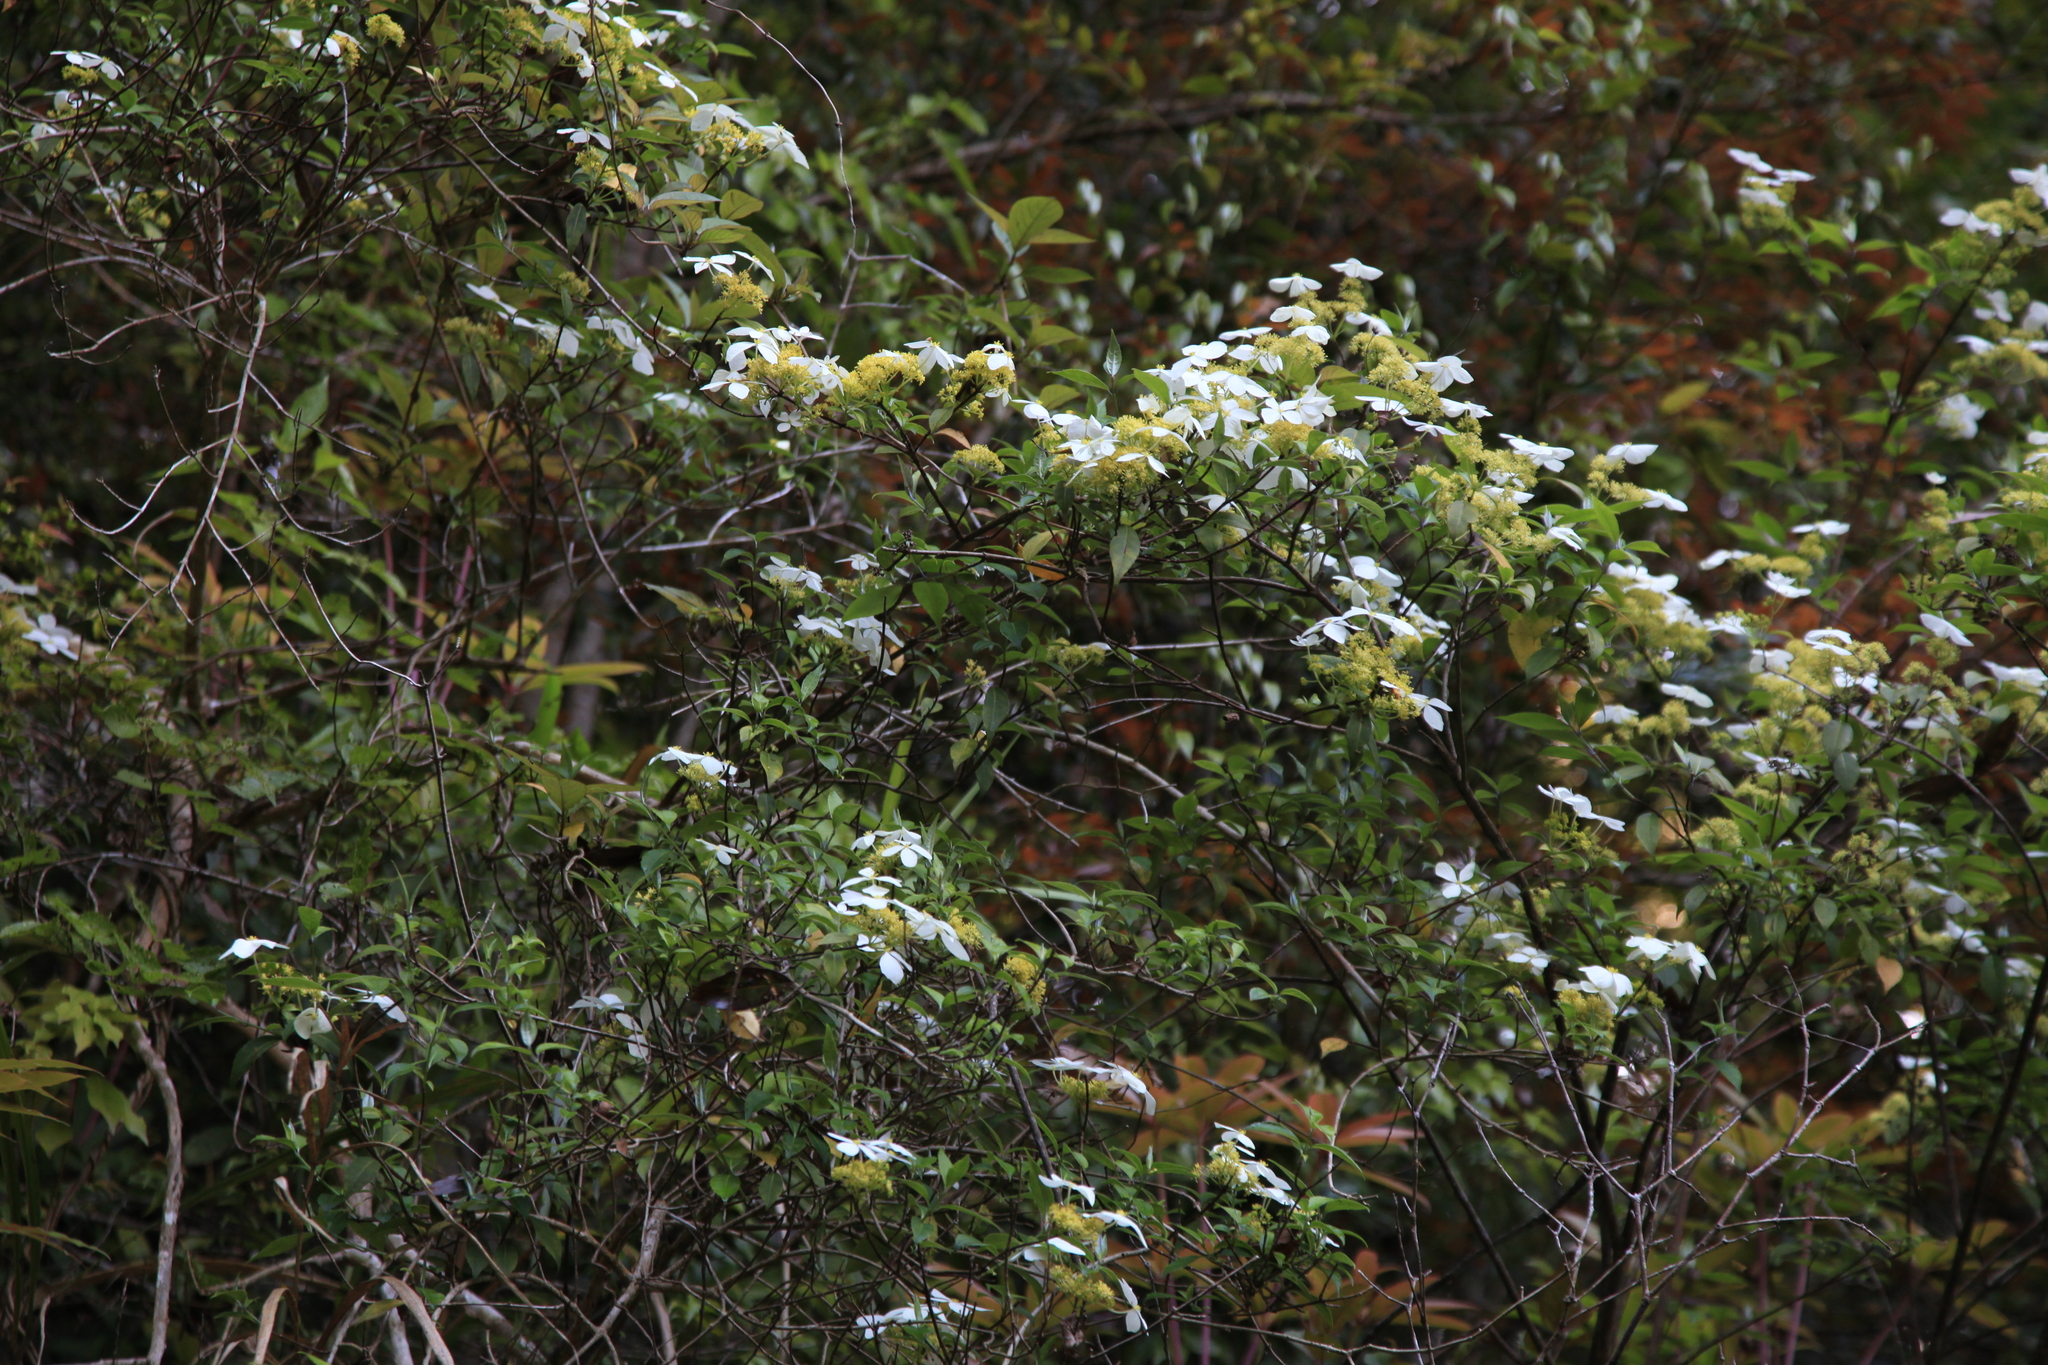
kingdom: Plantae
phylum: Tracheophyta
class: Magnoliopsida
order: Cornales
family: Hydrangeaceae
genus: Hydrangea
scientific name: Hydrangea chinensis
